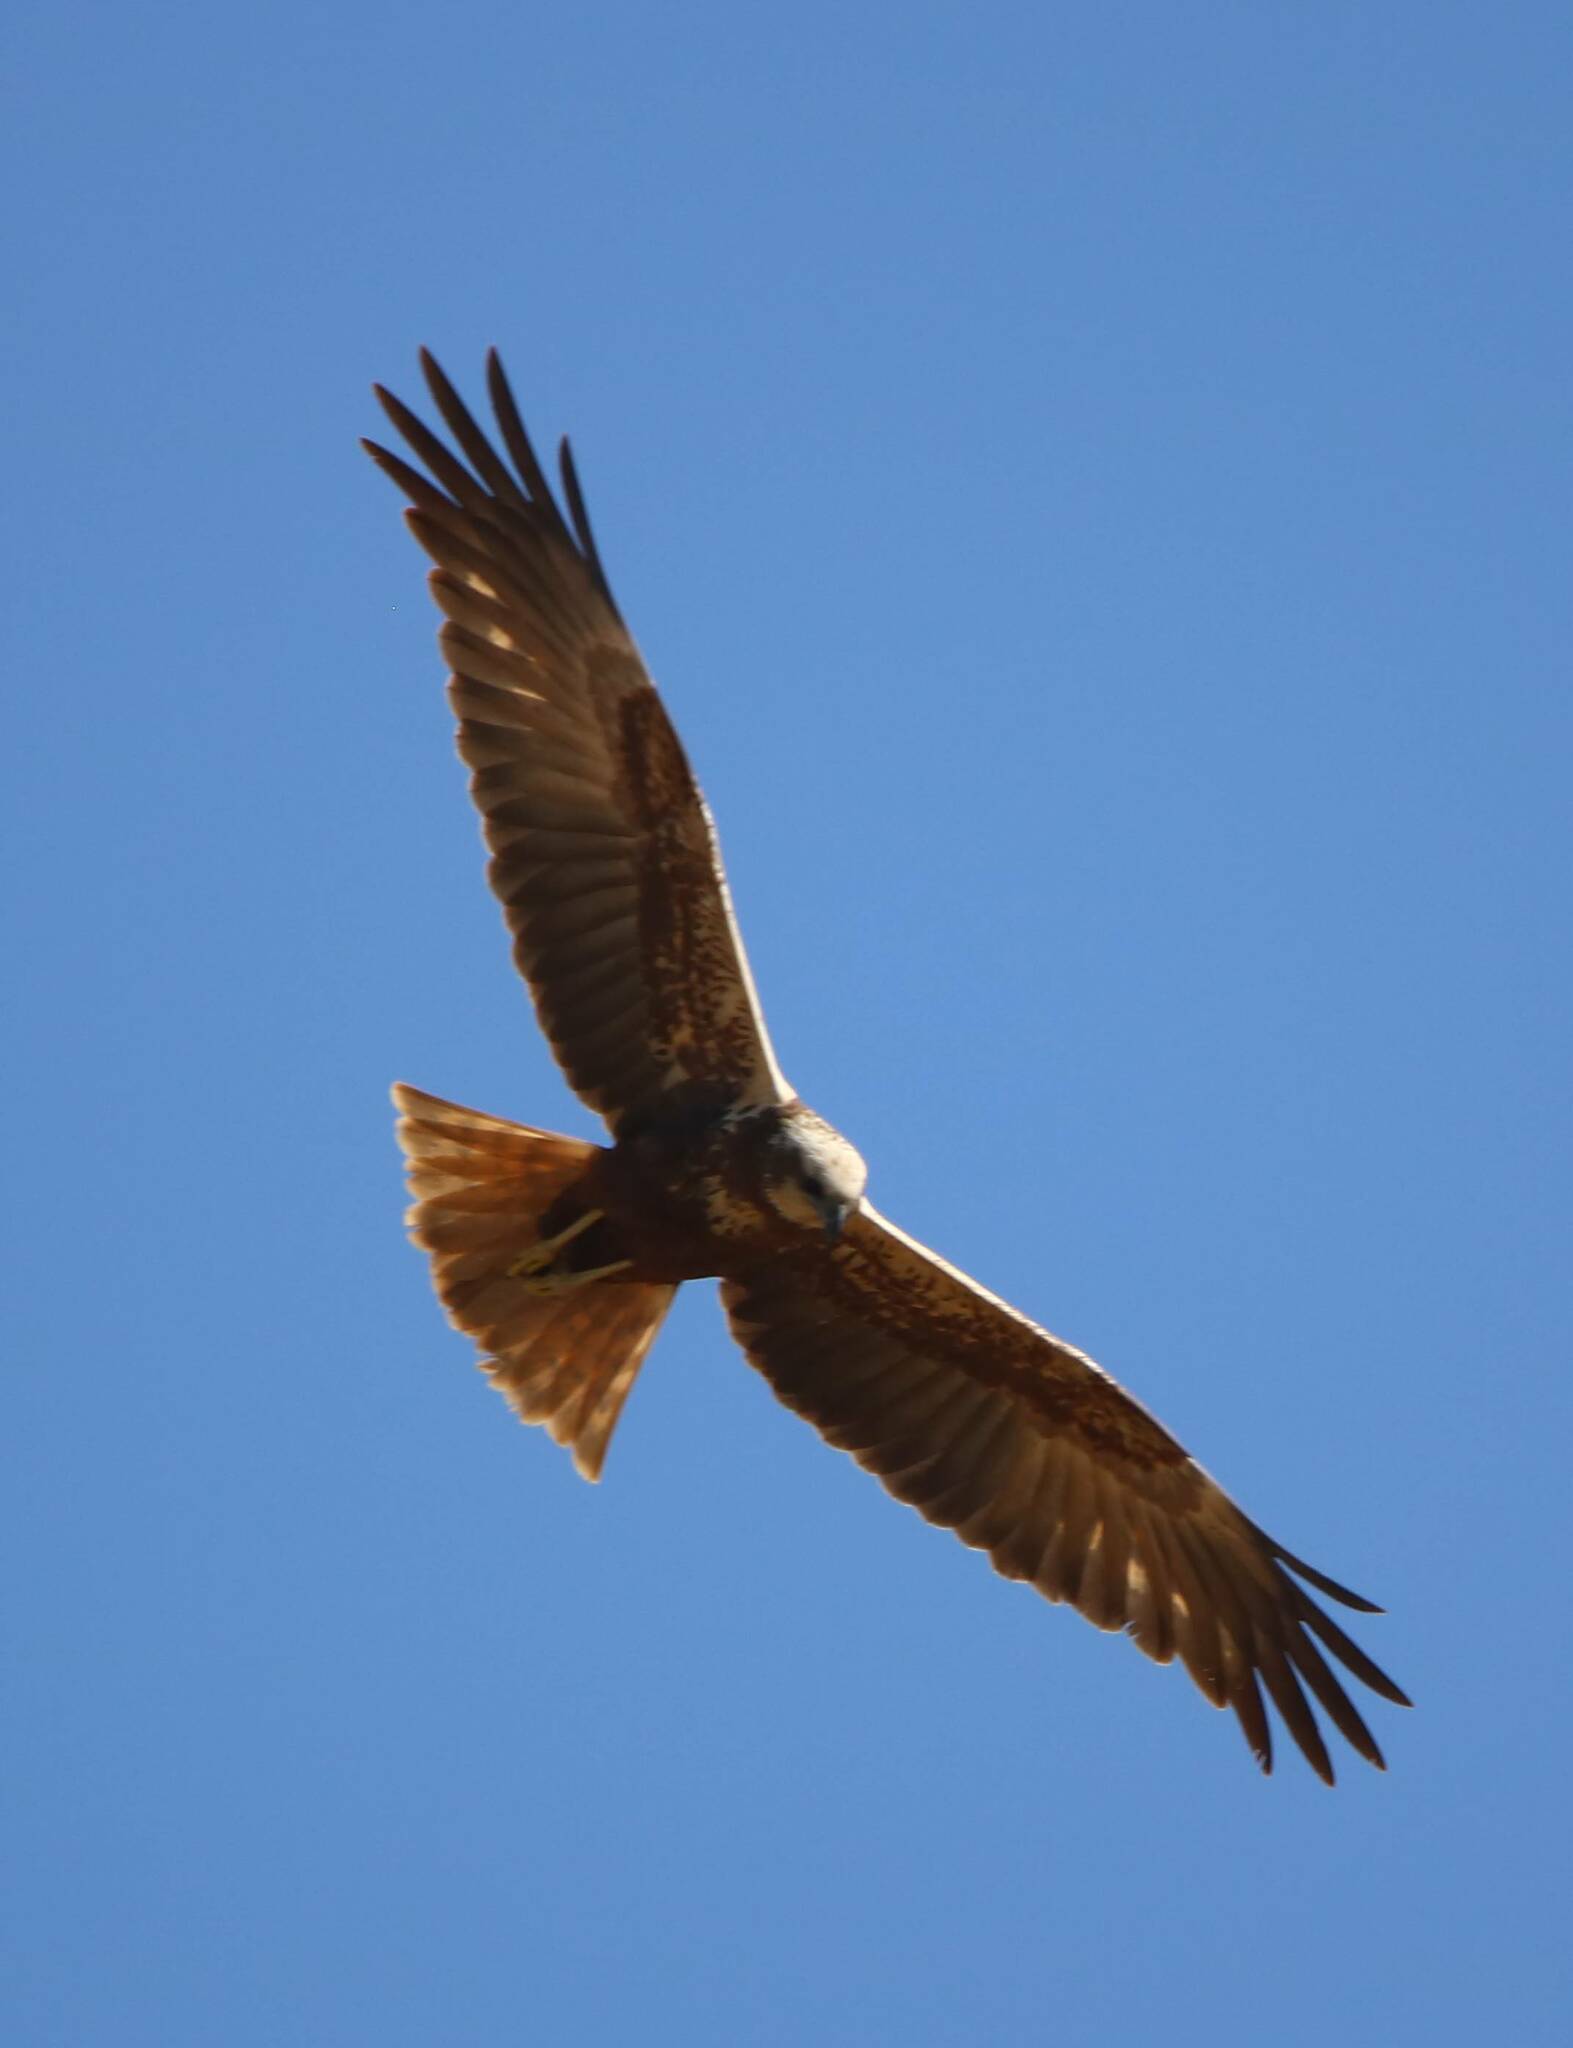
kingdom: Animalia
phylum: Chordata
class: Aves
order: Accipitriformes
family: Accipitridae
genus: Circus
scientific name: Circus aeruginosus
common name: Western marsh harrier
